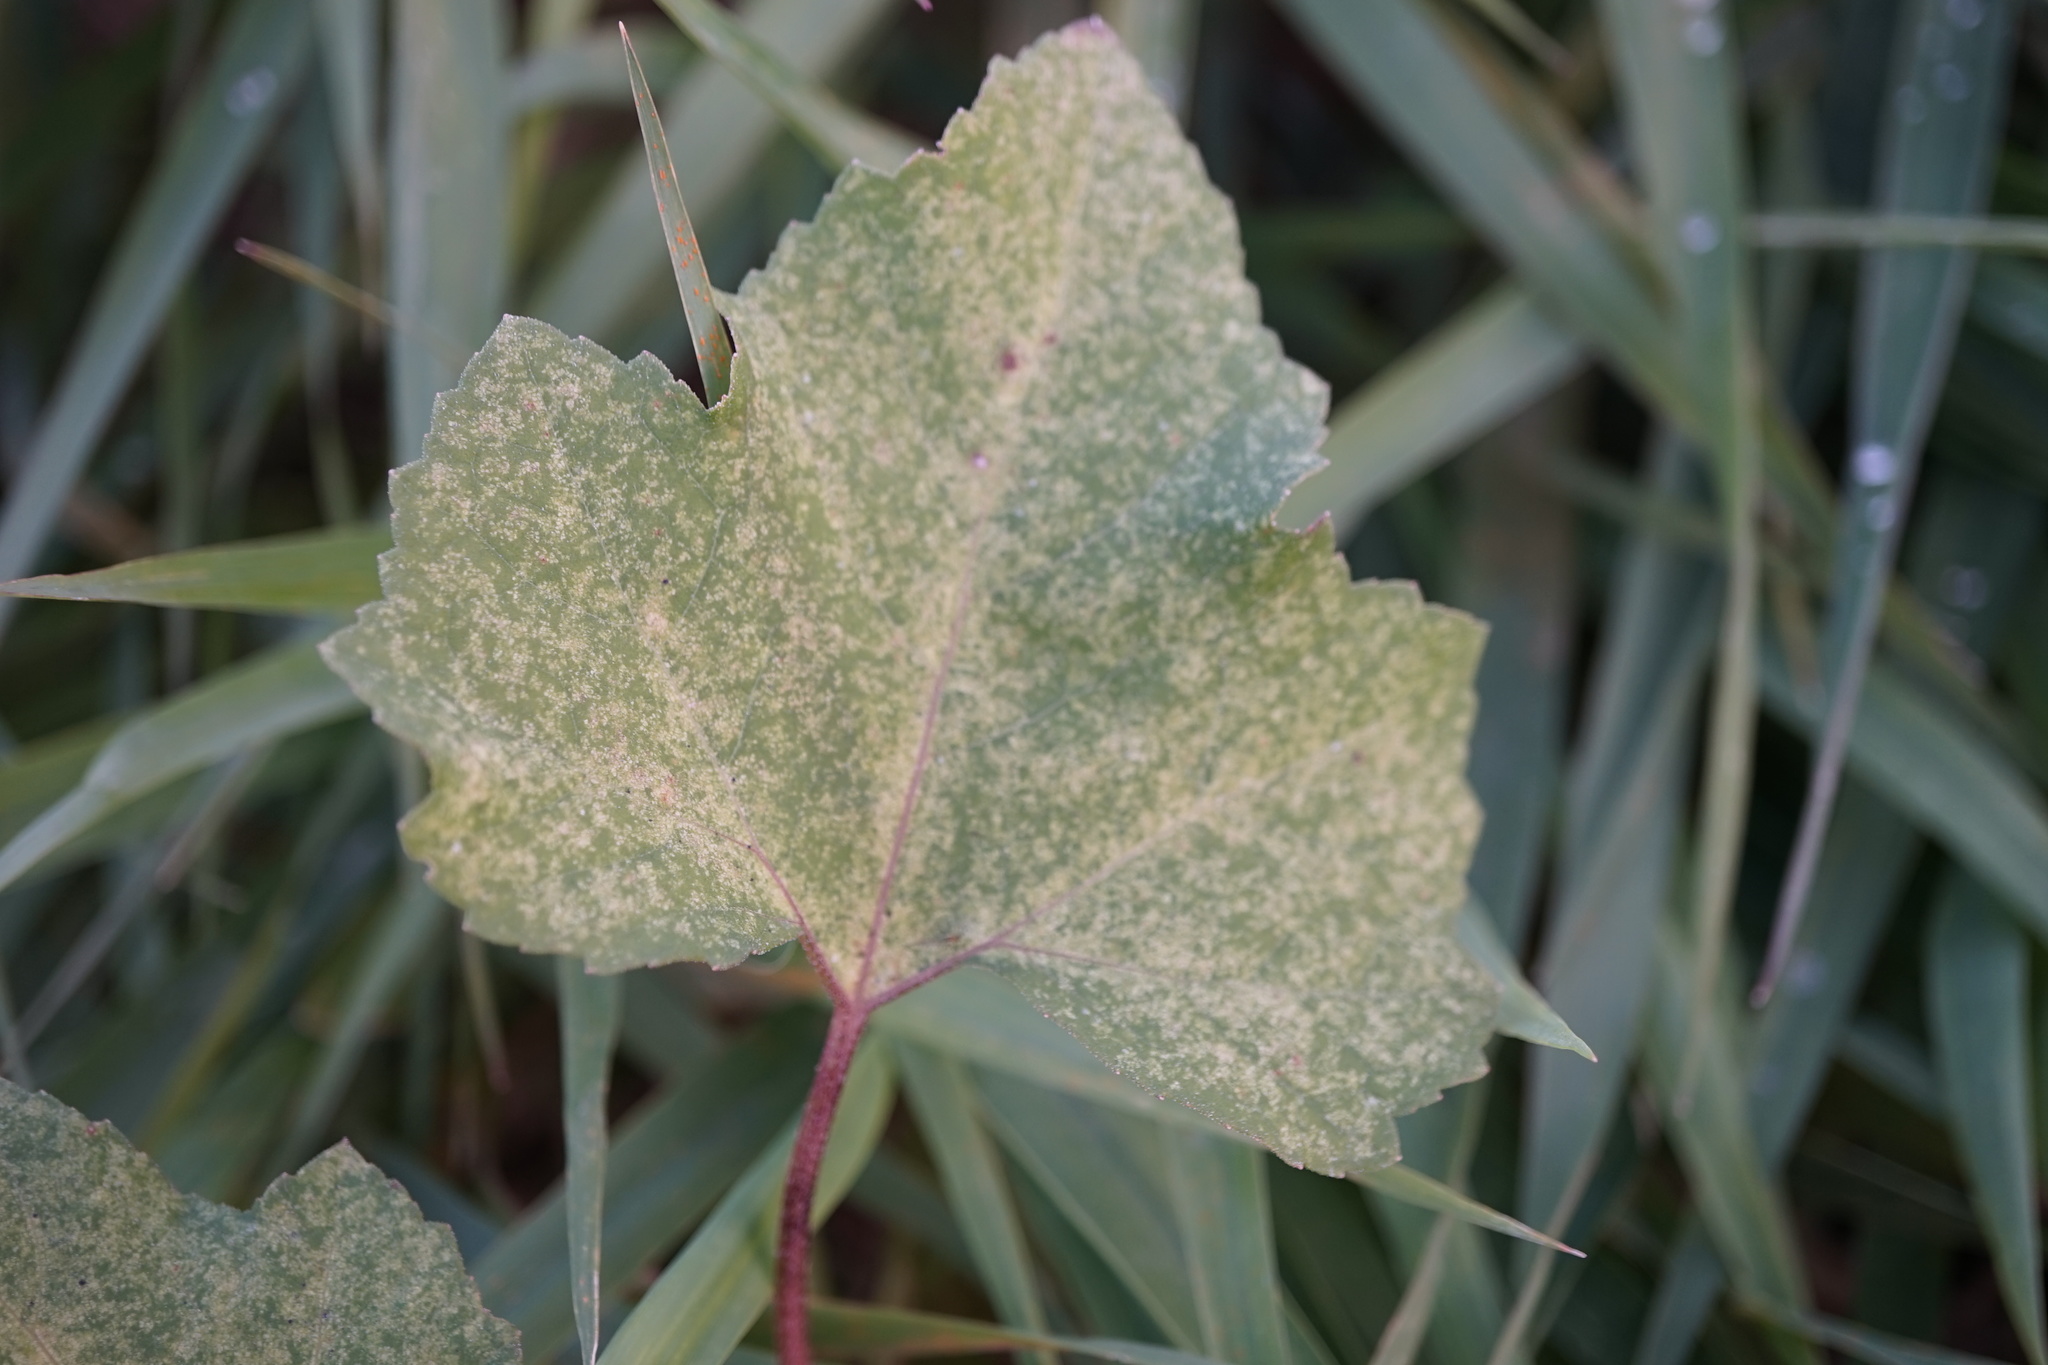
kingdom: Plantae
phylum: Tracheophyta
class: Magnoliopsida
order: Asterales
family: Asteraceae
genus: Xanthium
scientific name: Xanthium strumarium
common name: Rough cocklebur
